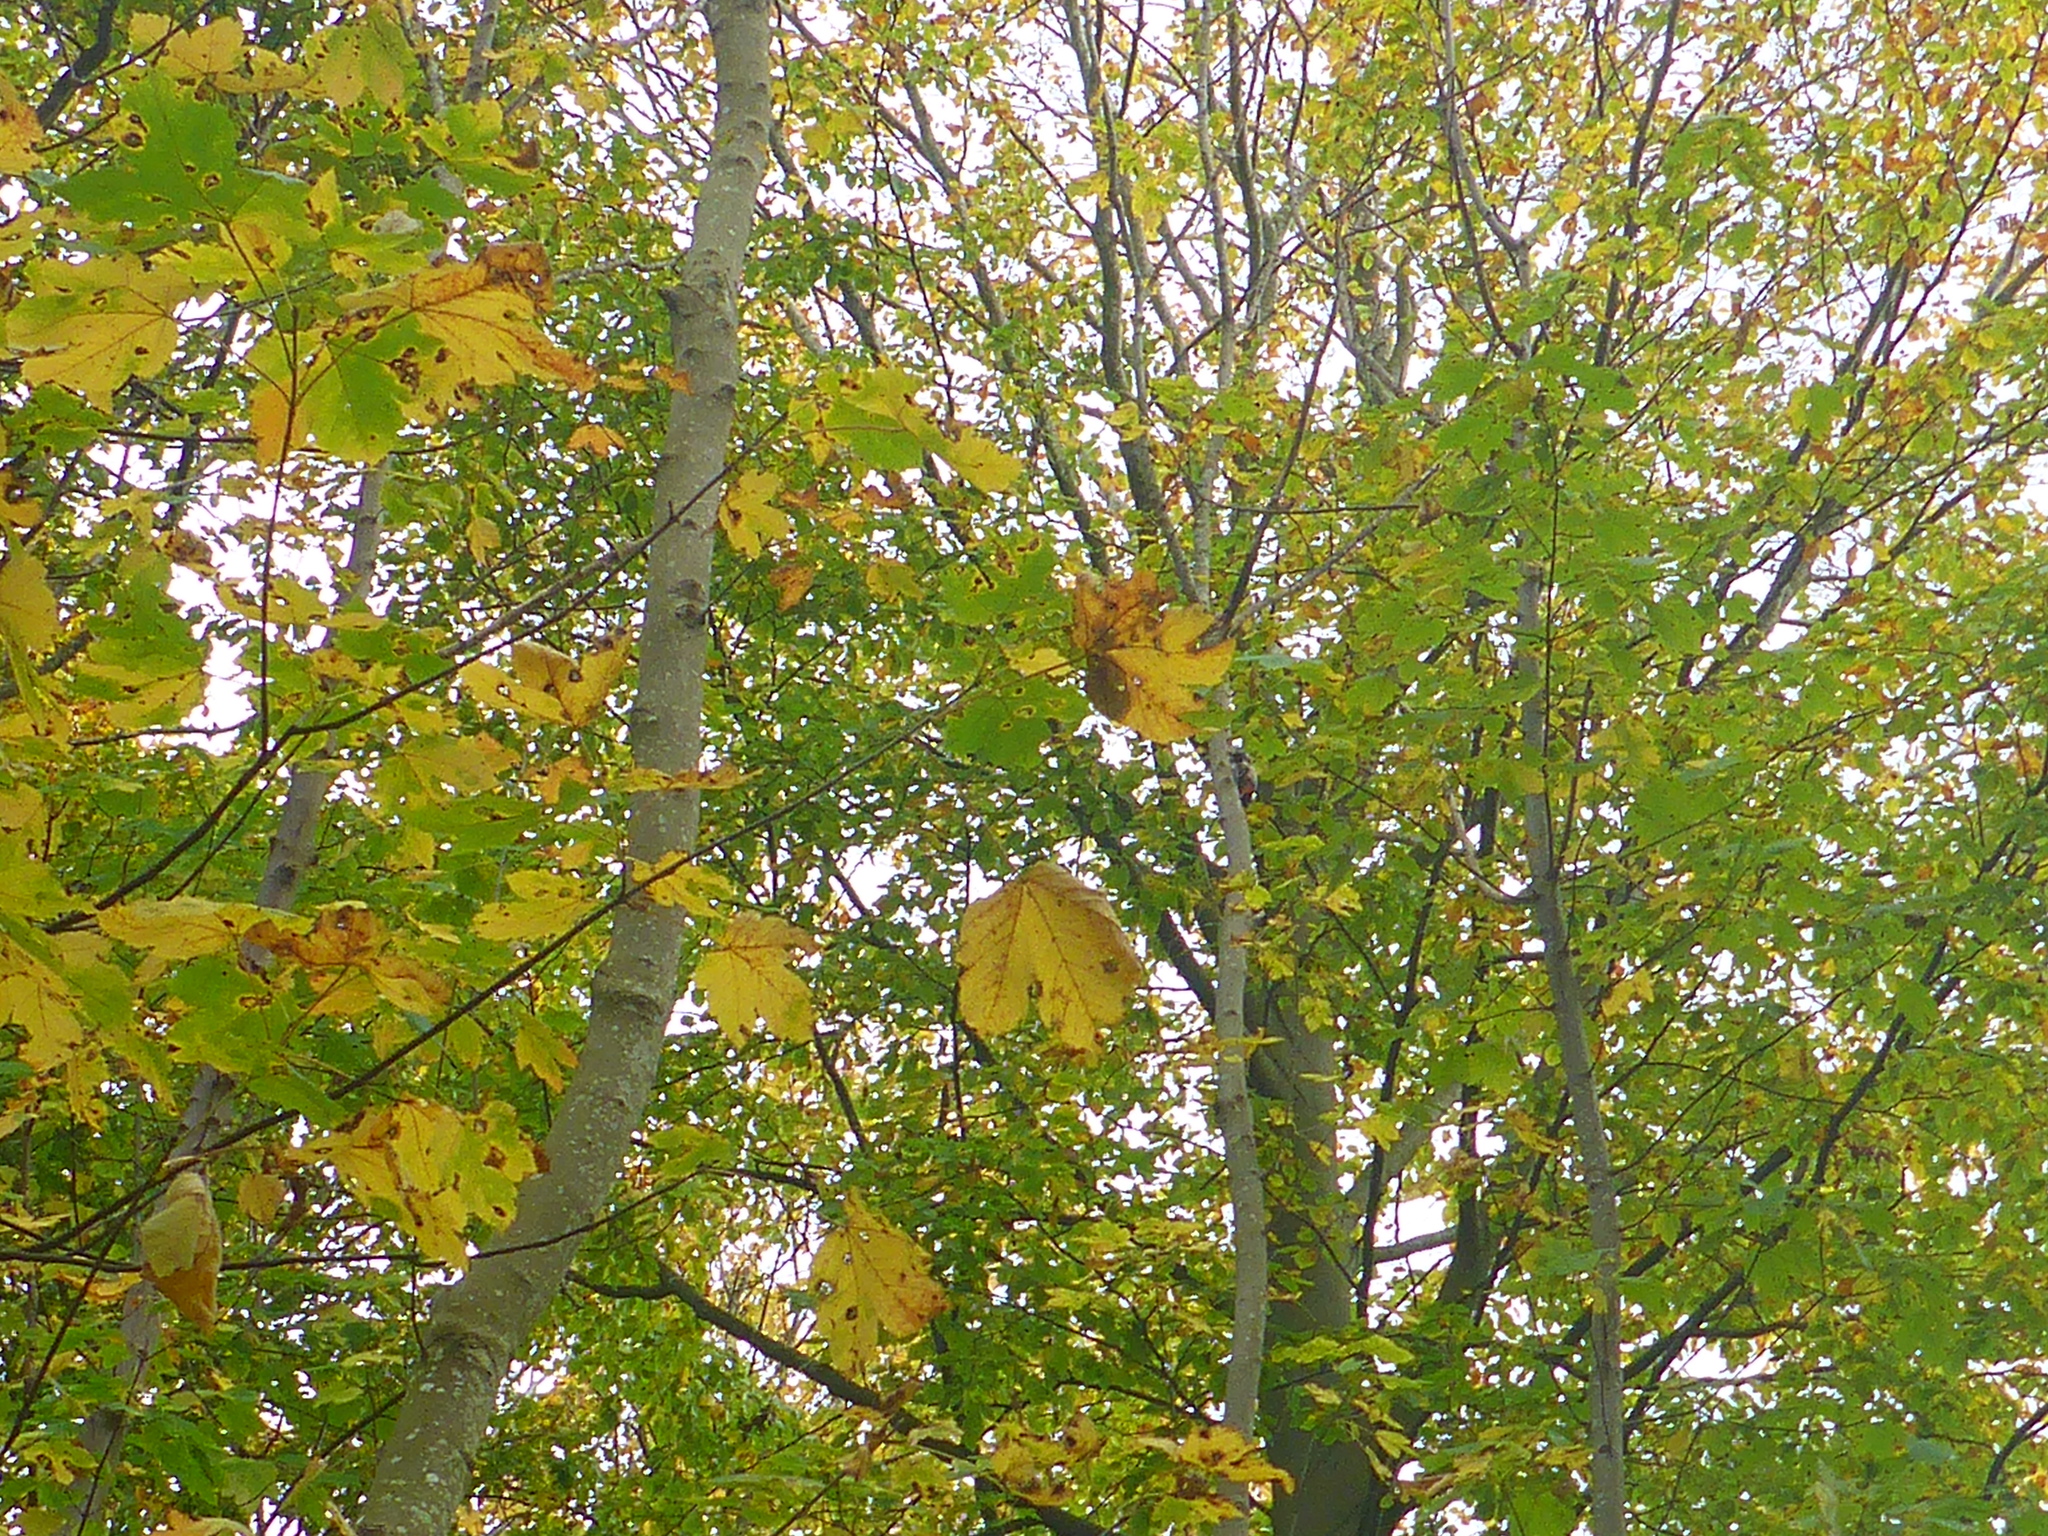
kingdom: Animalia
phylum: Chordata
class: Aves
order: Piciformes
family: Picidae
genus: Dendrocopos
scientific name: Dendrocopos major
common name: Great spotted woodpecker
